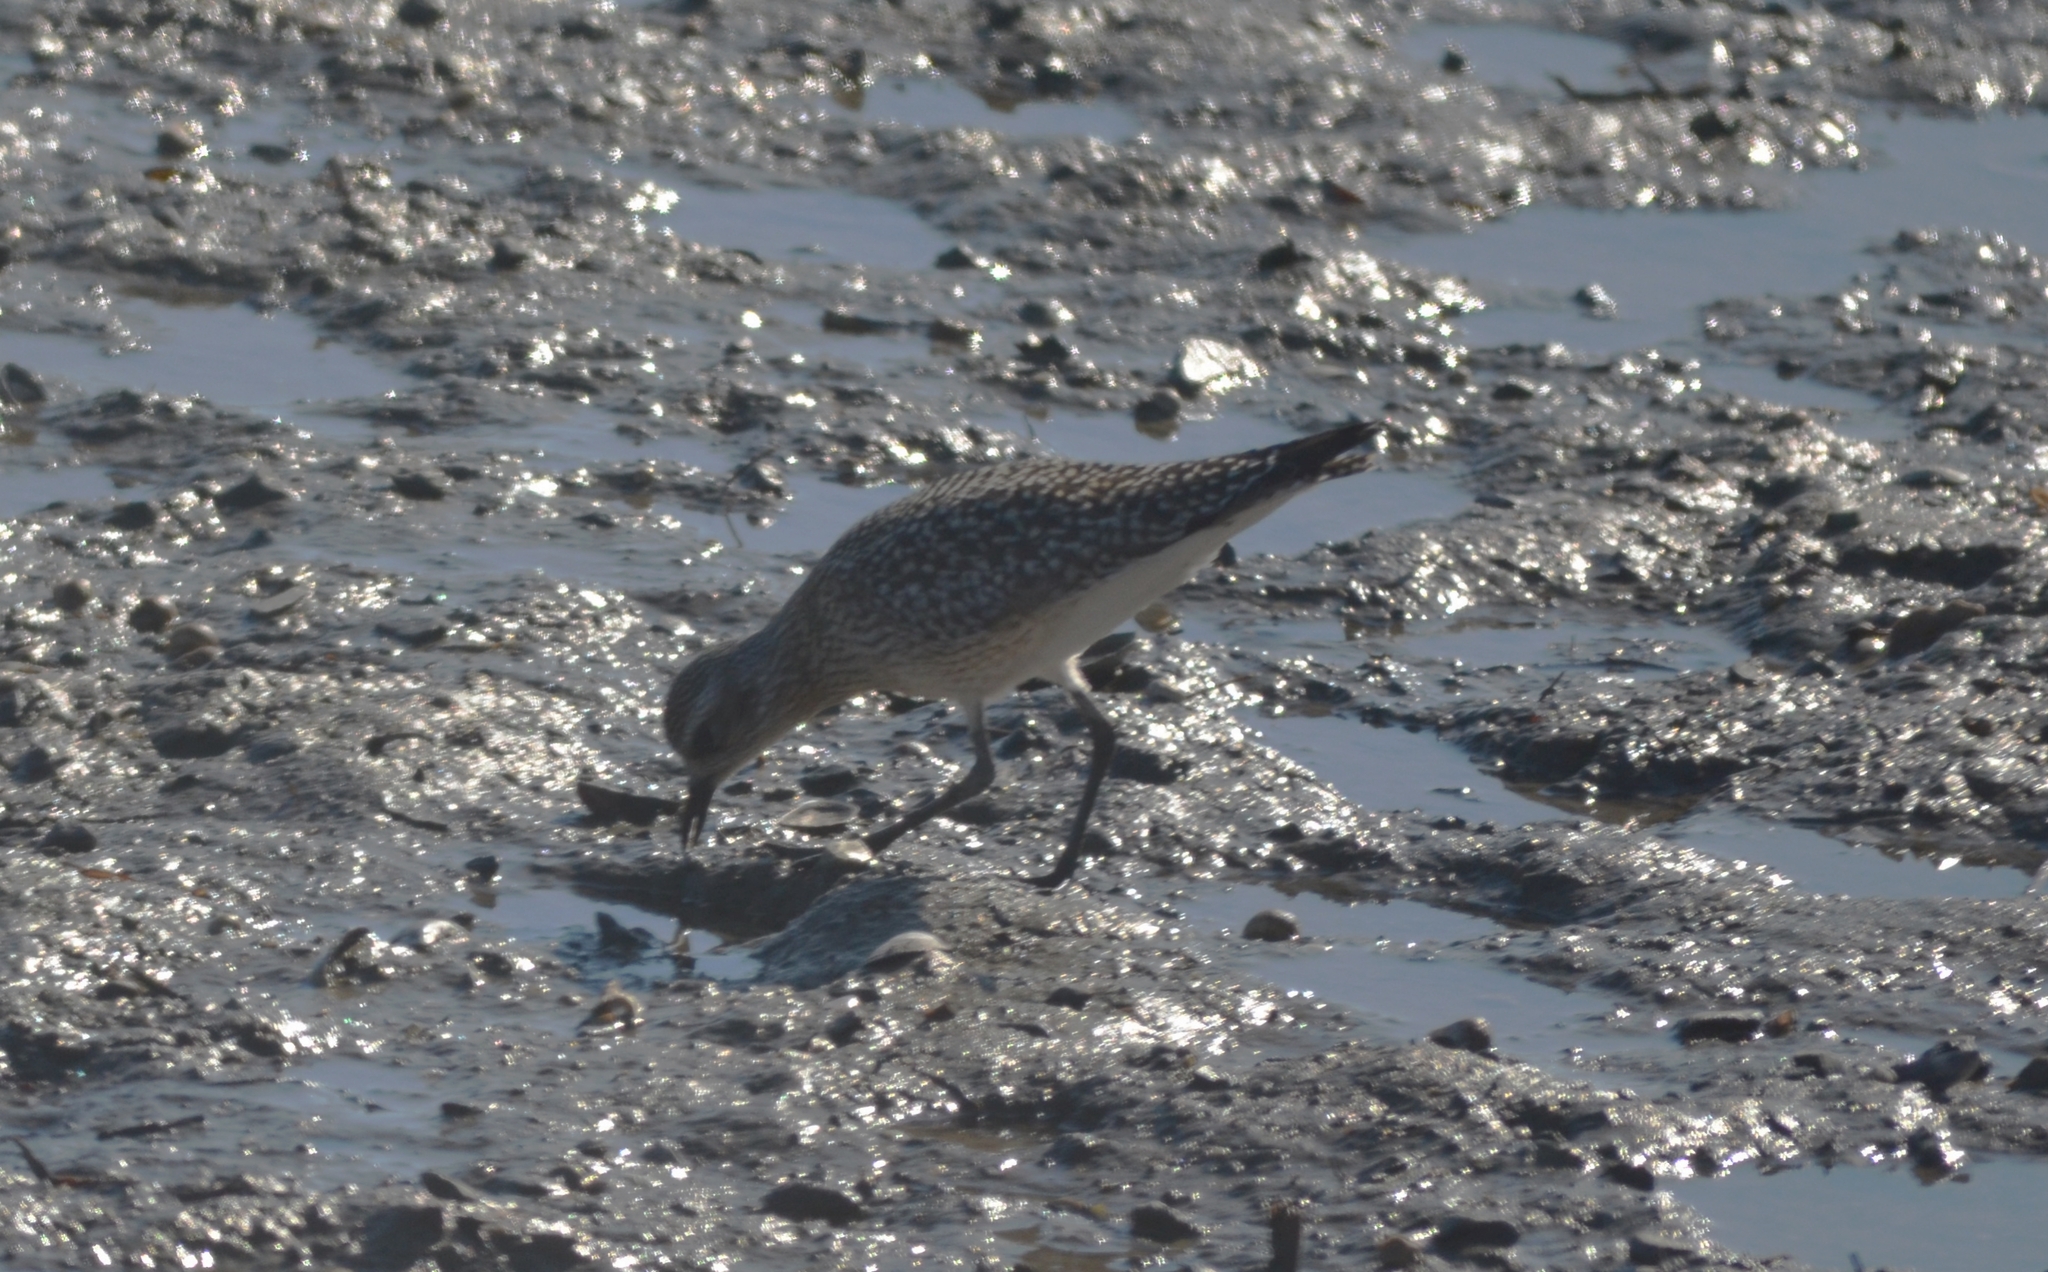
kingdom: Animalia
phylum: Chordata
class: Aves
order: Charadriiformes
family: Charadriidae
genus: Pluvialis
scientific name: Pluvialis squatarola
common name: Grey plover
